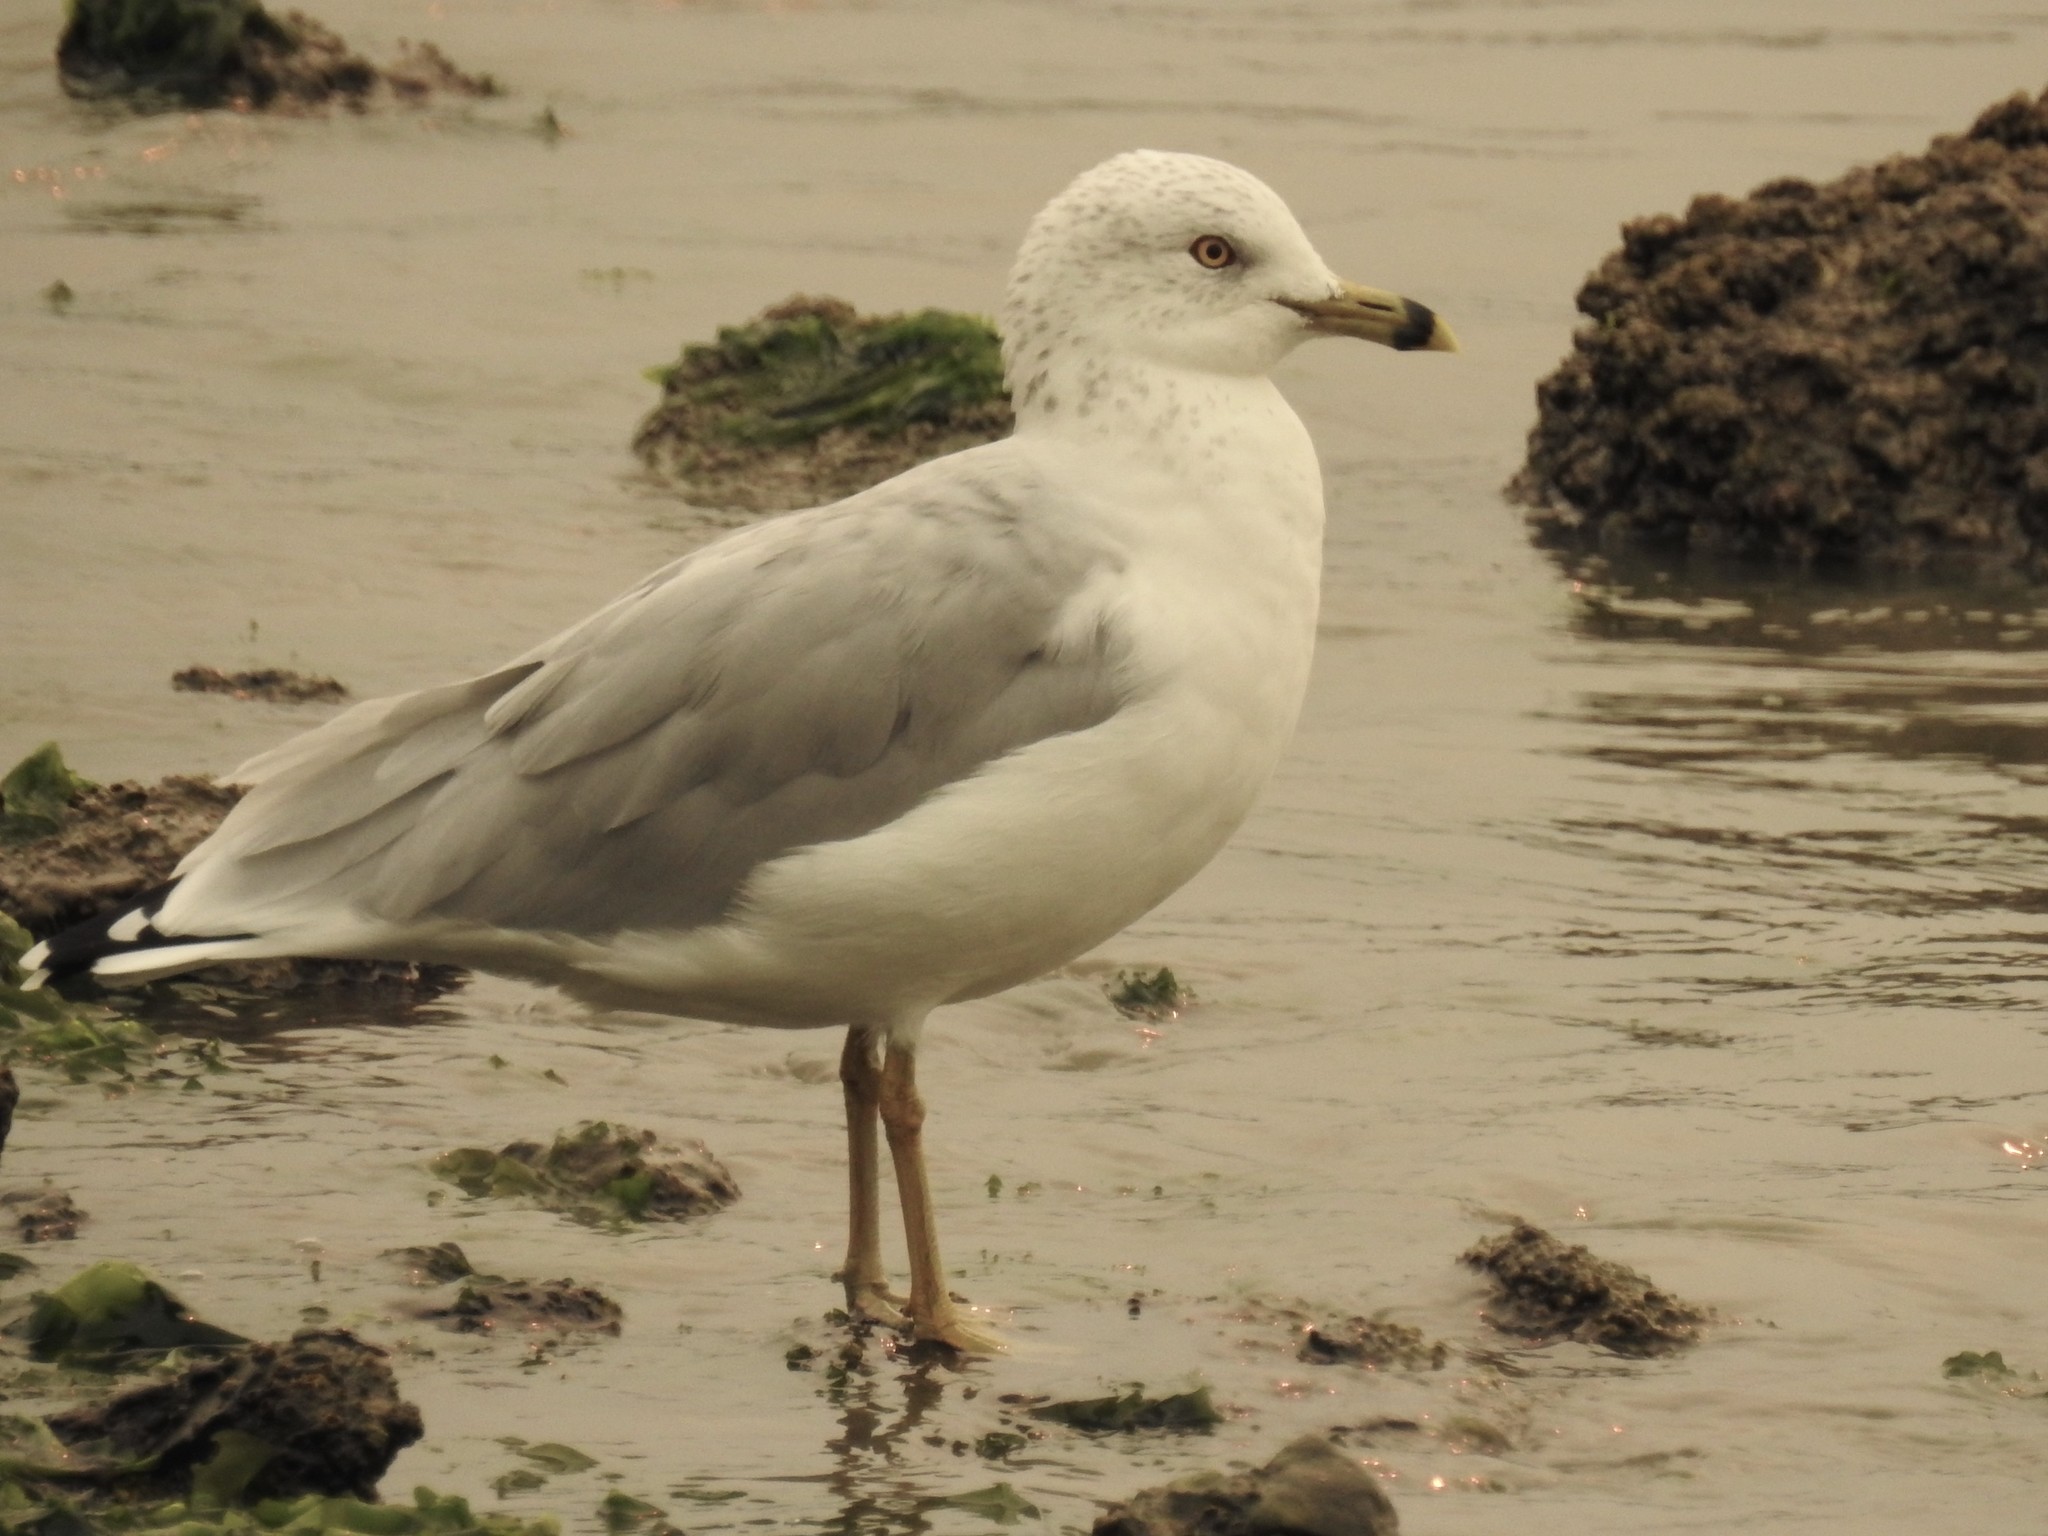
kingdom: Animalia
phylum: Chordata
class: Aves
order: Charadriiformes
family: Laridae
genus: Larus
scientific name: Larus delawarensis
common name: Ring-billed gull
